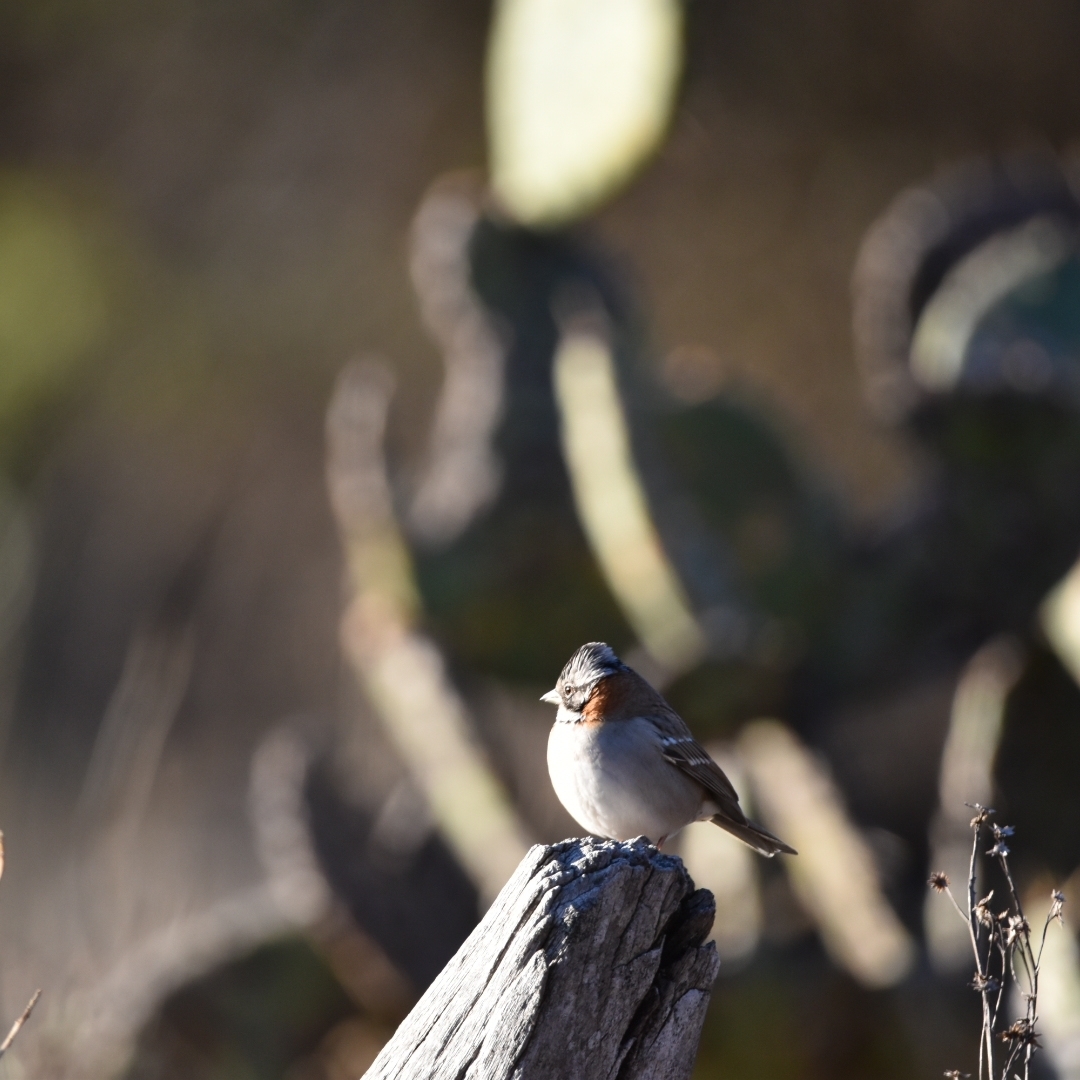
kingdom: Animalia
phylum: Chordata
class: Aves
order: Passeriformes
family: Passerellidae
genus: Zonotrichia
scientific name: Zonotrichia capensis
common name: Rufous-collared sparrow
